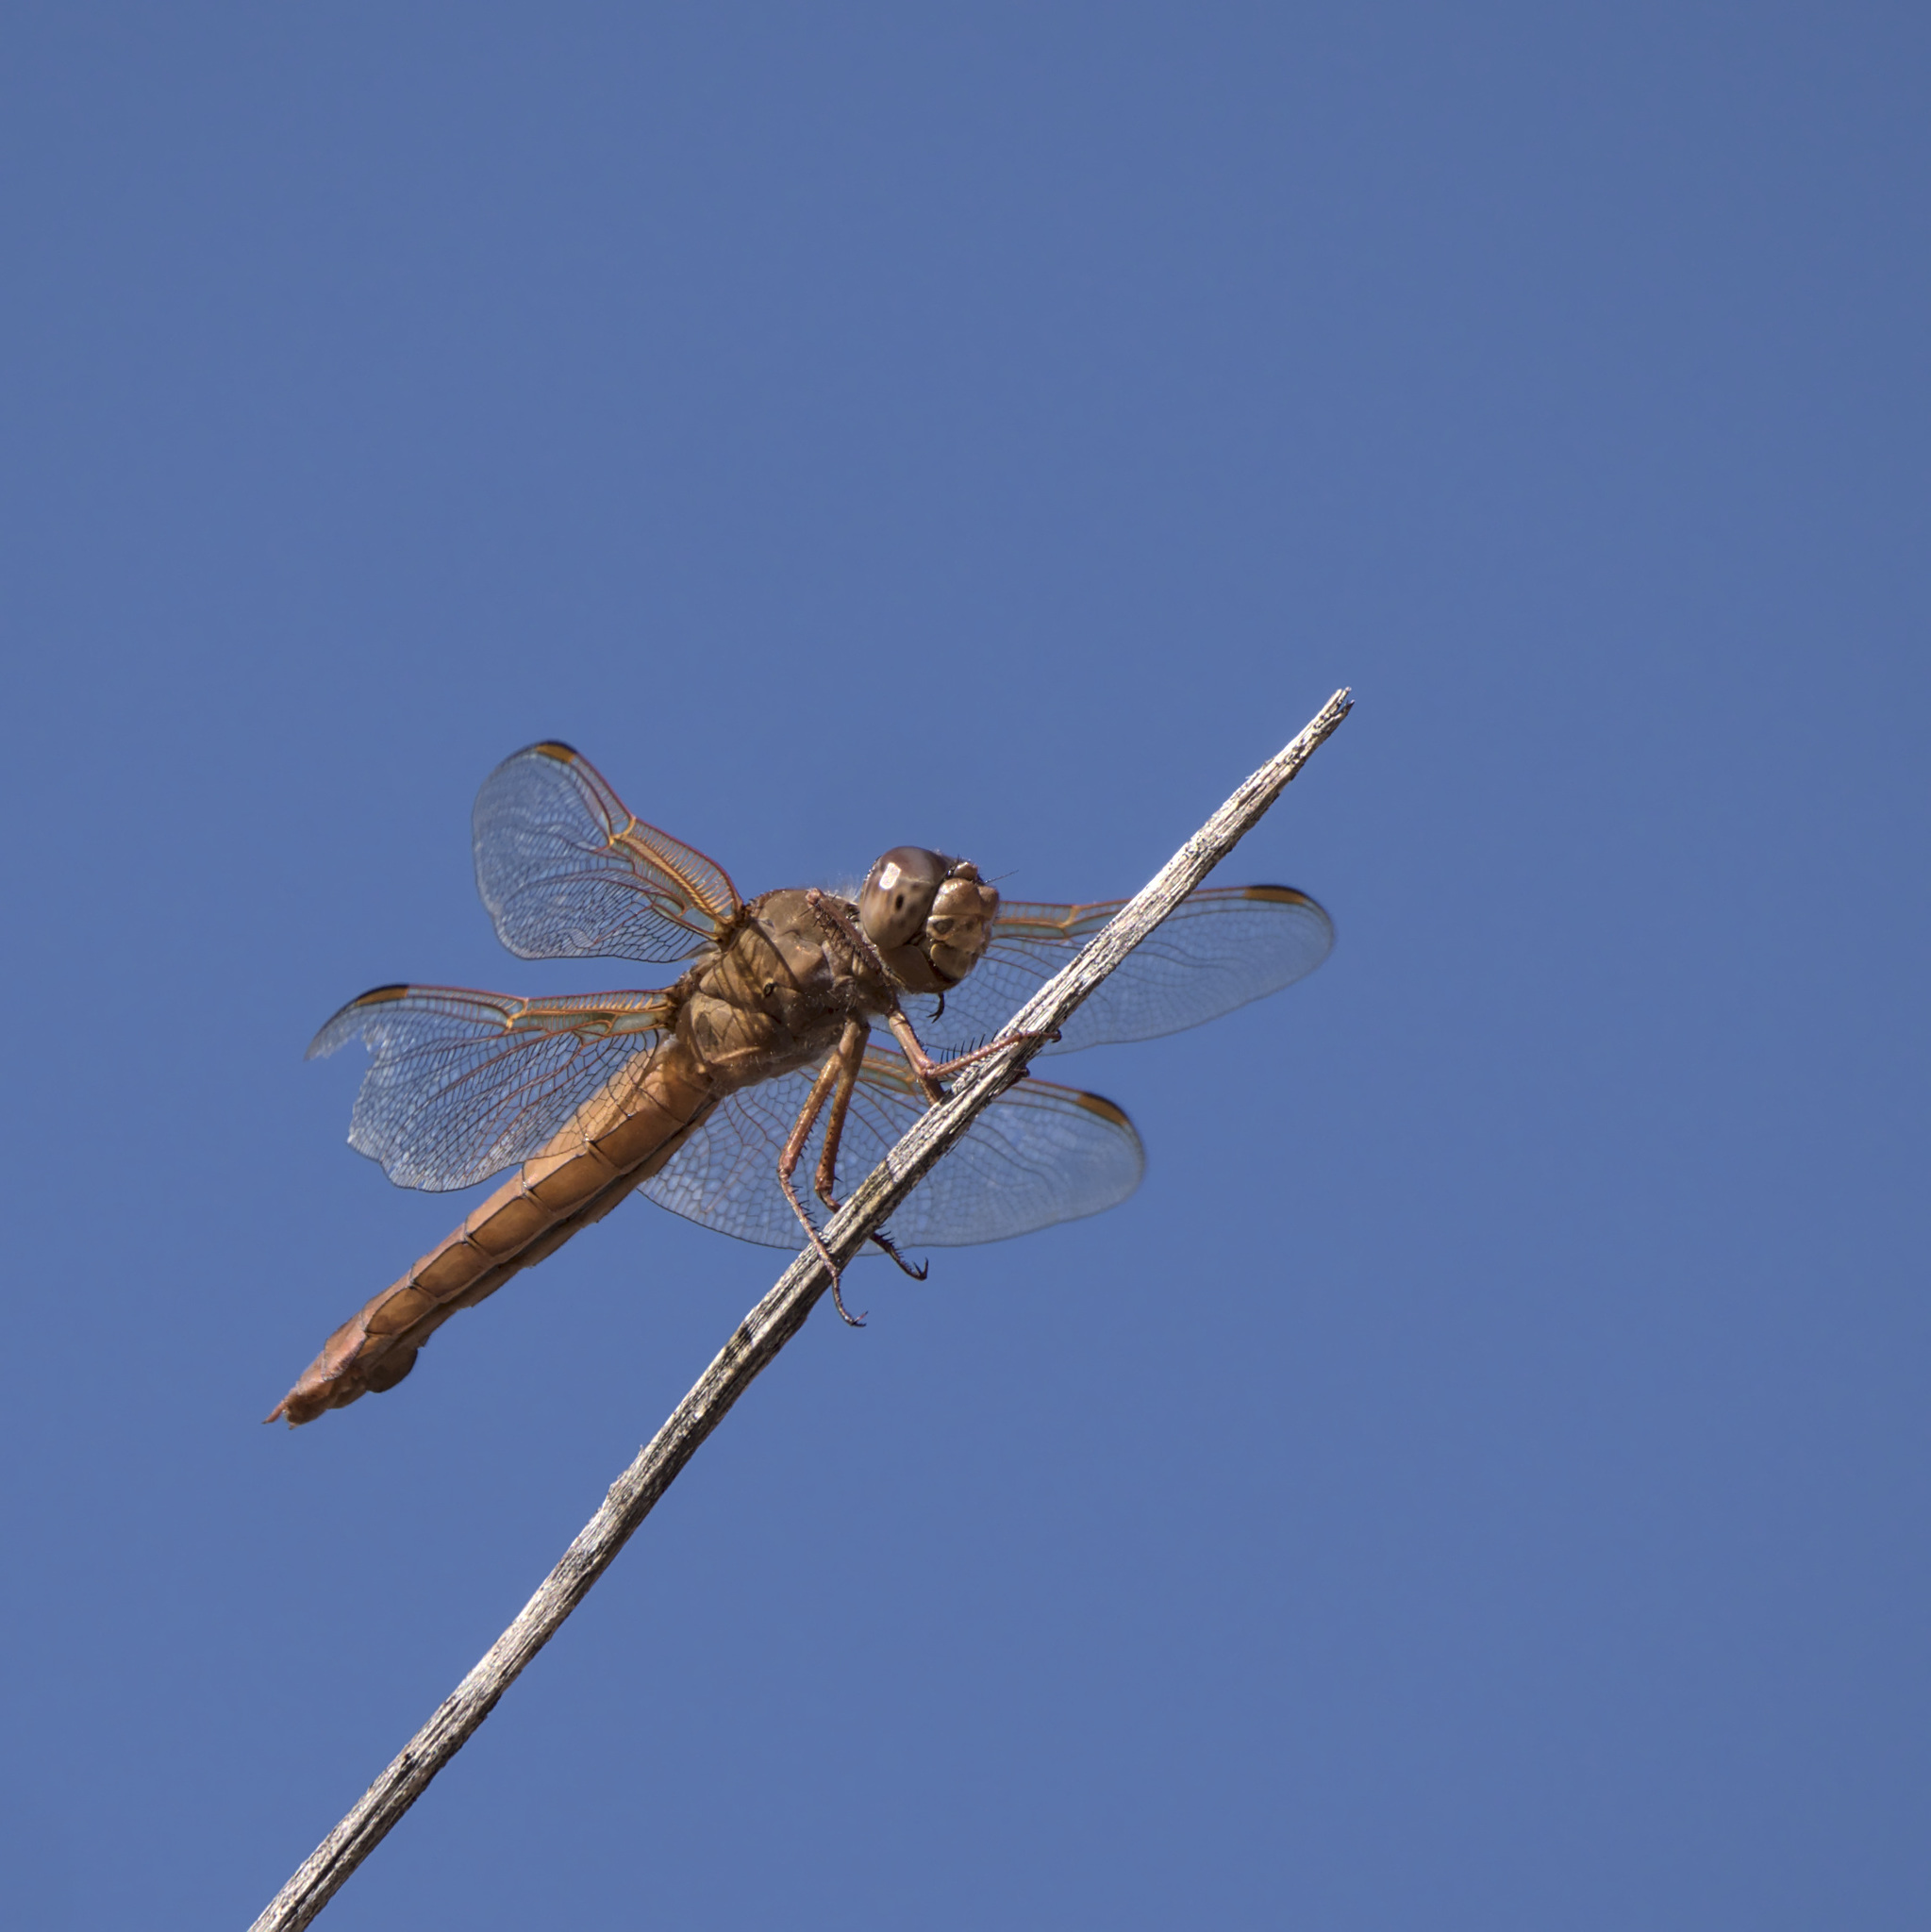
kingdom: Animalia
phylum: Arthropoda
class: Insecta
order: Odonata
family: Libellulidae
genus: Libellula
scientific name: Libellula saturata
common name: Flame skimmer
